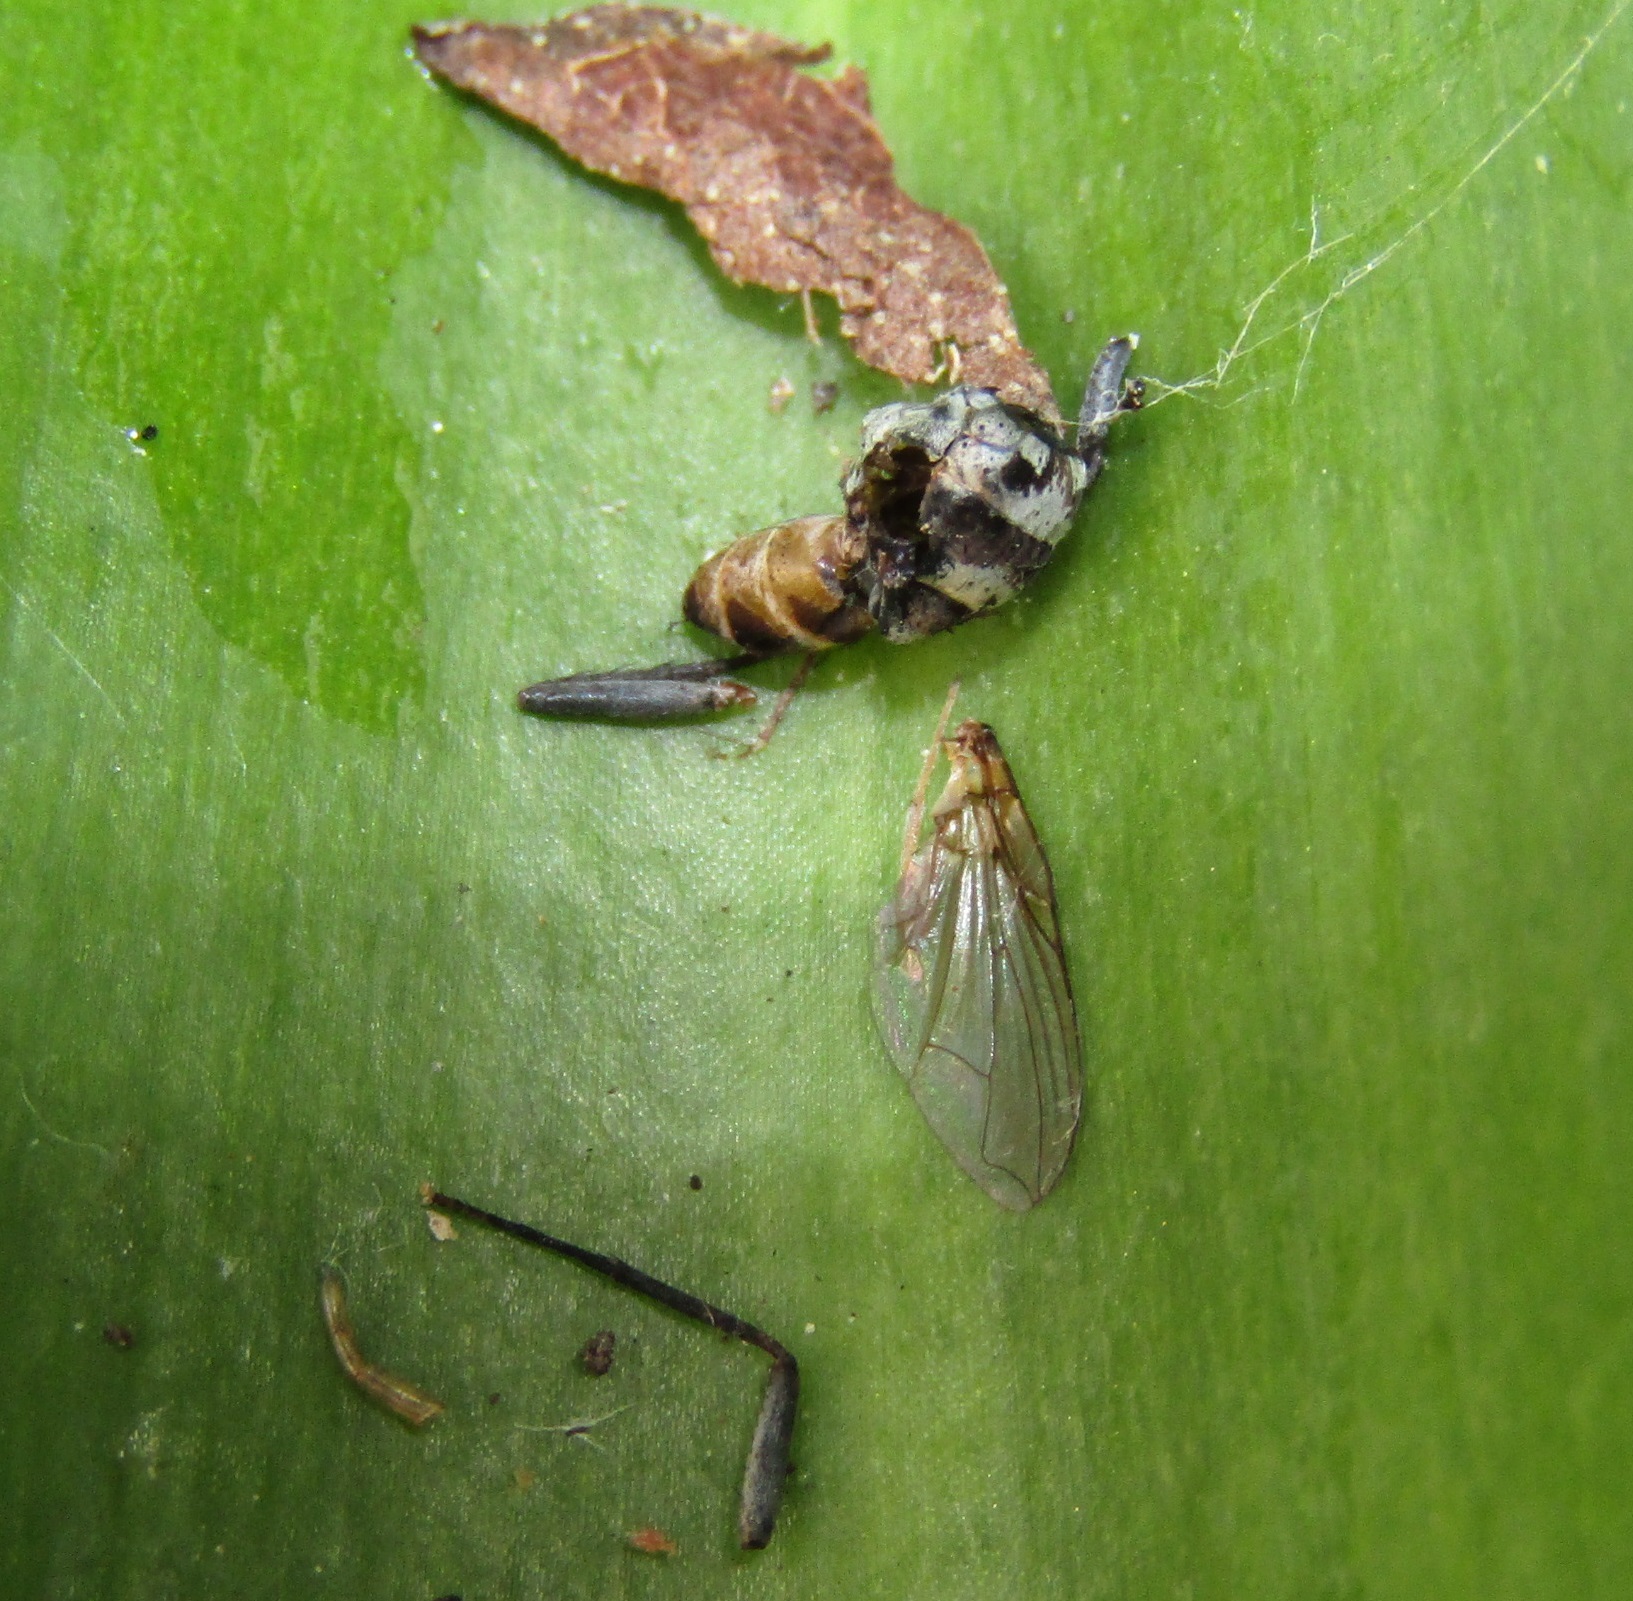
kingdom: Animalia
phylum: Arthropoda
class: Insecta
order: Diptera
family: Tachinidae
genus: Trigonospila
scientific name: Trigonospila brevifacies
